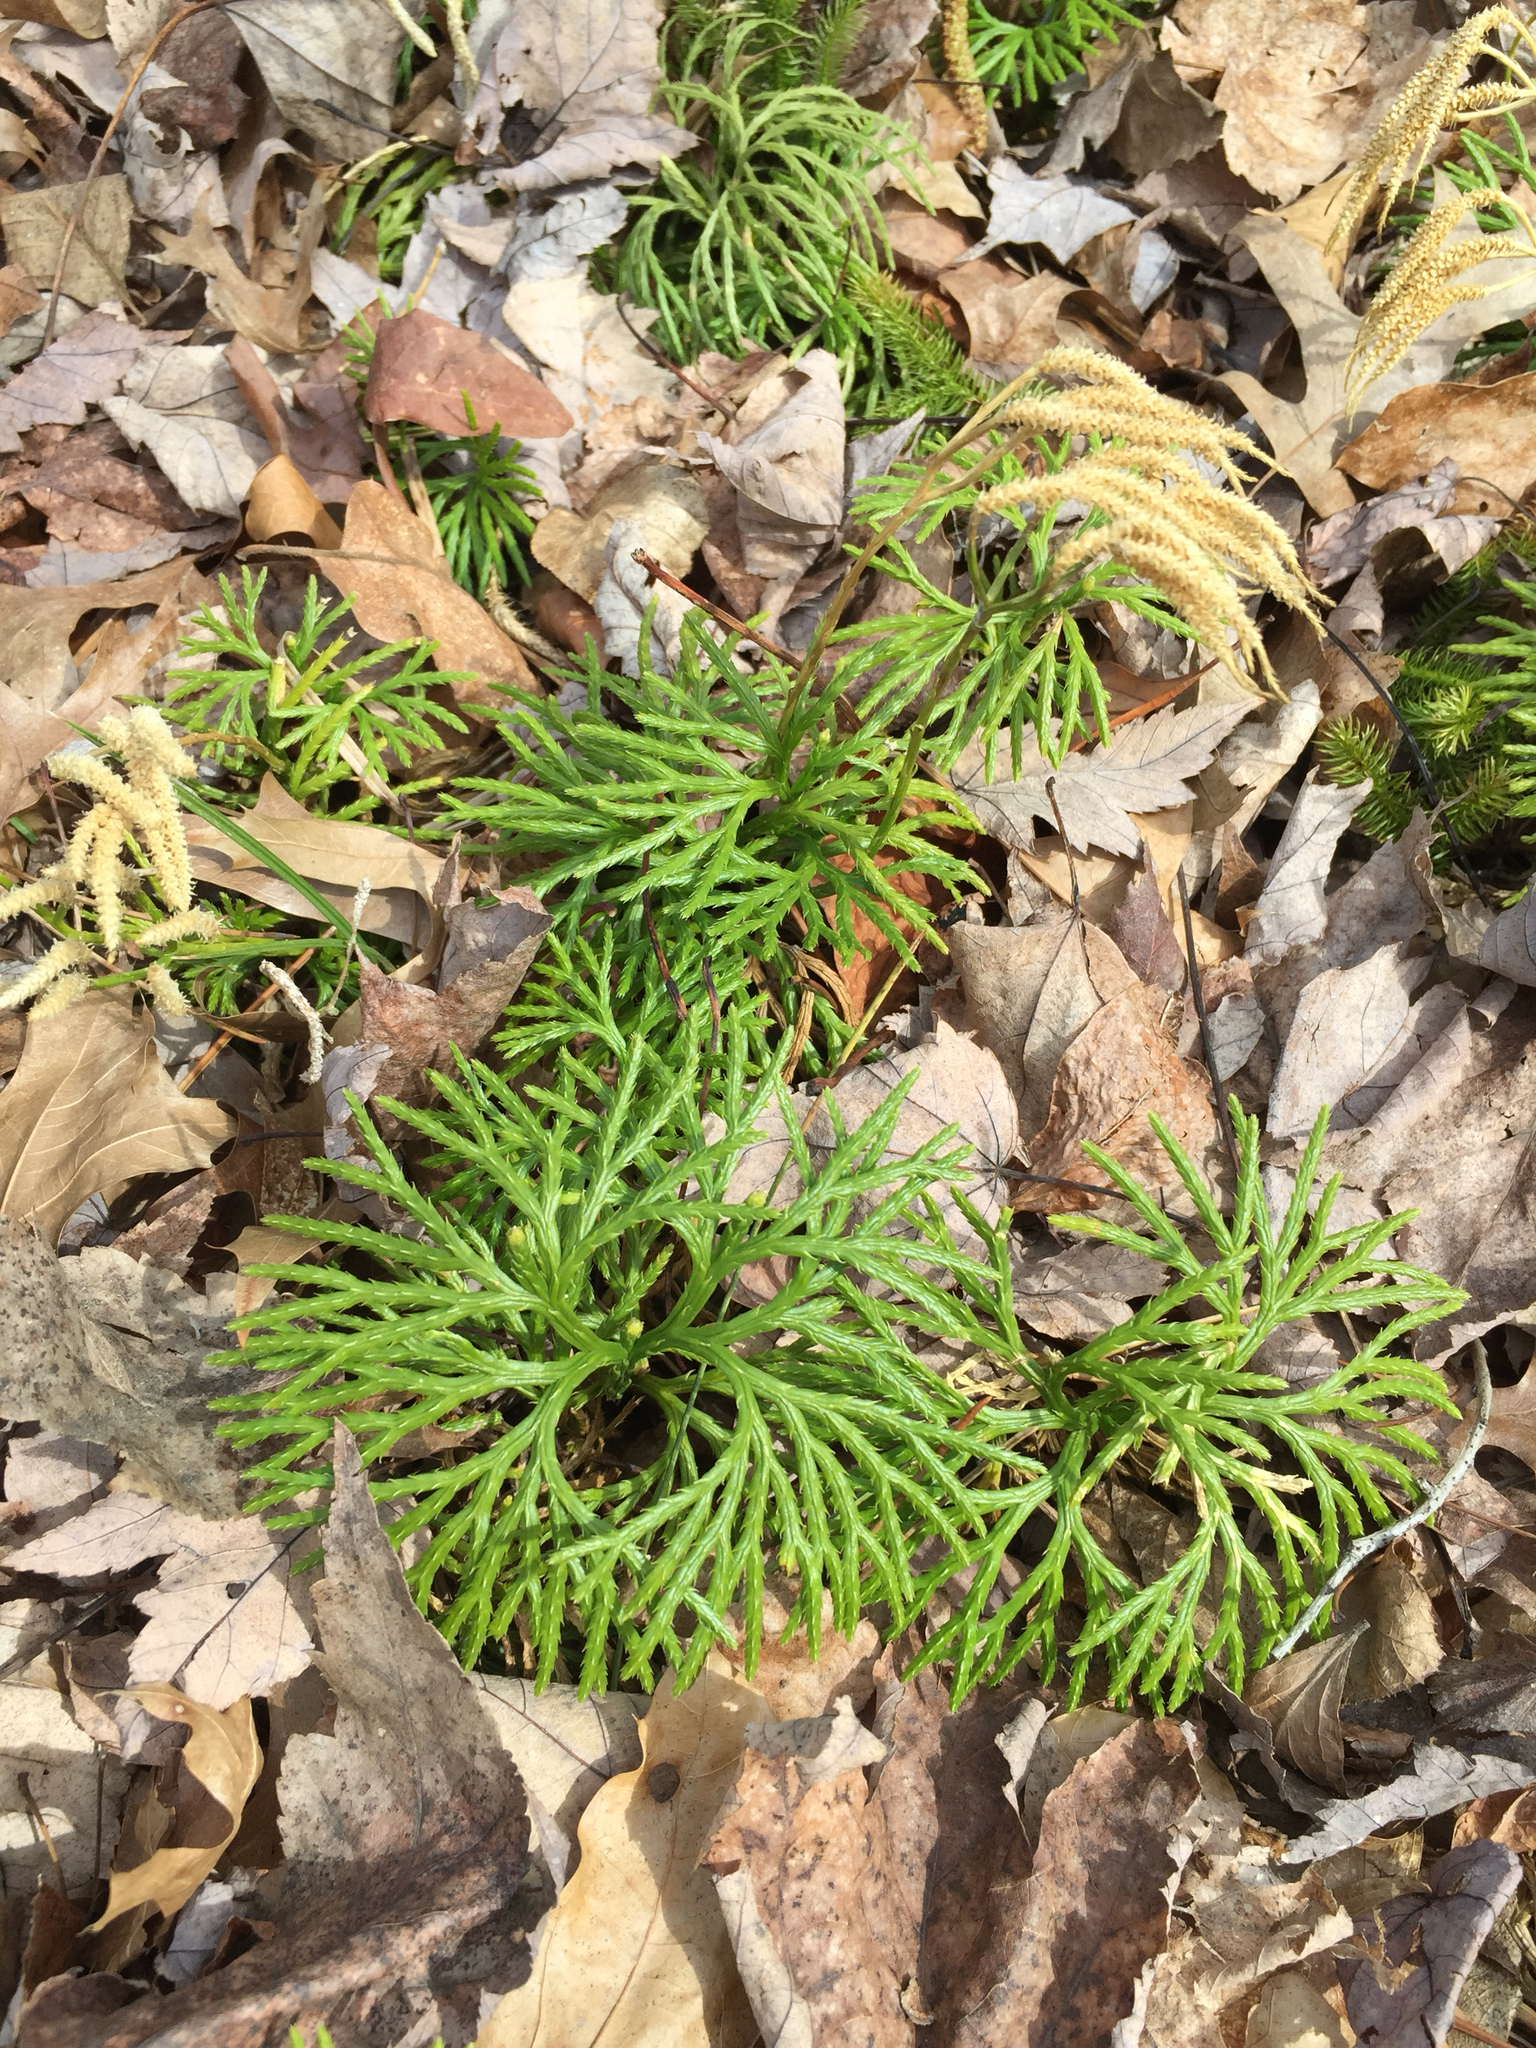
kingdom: Plantae
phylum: Tracheophyta
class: Lycopodiopsida
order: Lycopodiales
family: Lycopodiaceae
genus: Diphasiastrum
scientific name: Diphasiastrum digitatum
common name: Southern running-pine
